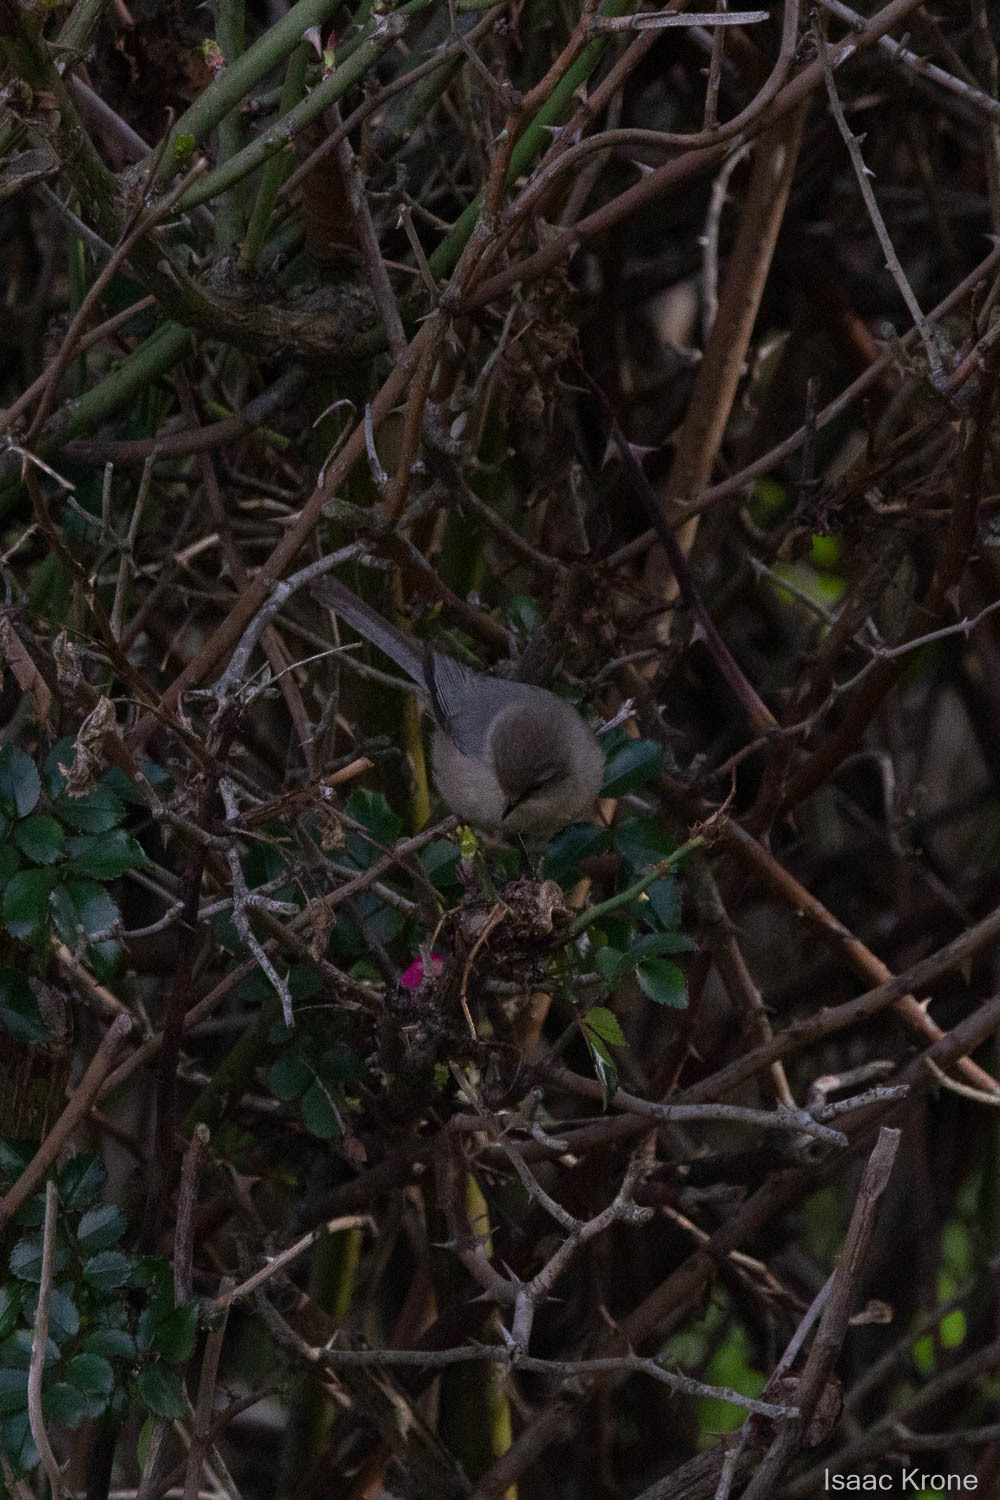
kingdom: Animalia
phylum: Chordata
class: Aves
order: Passeriformes
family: Aegithalidae
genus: Psaltriparus
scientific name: Psaltriparus minimus
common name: American bushtit
